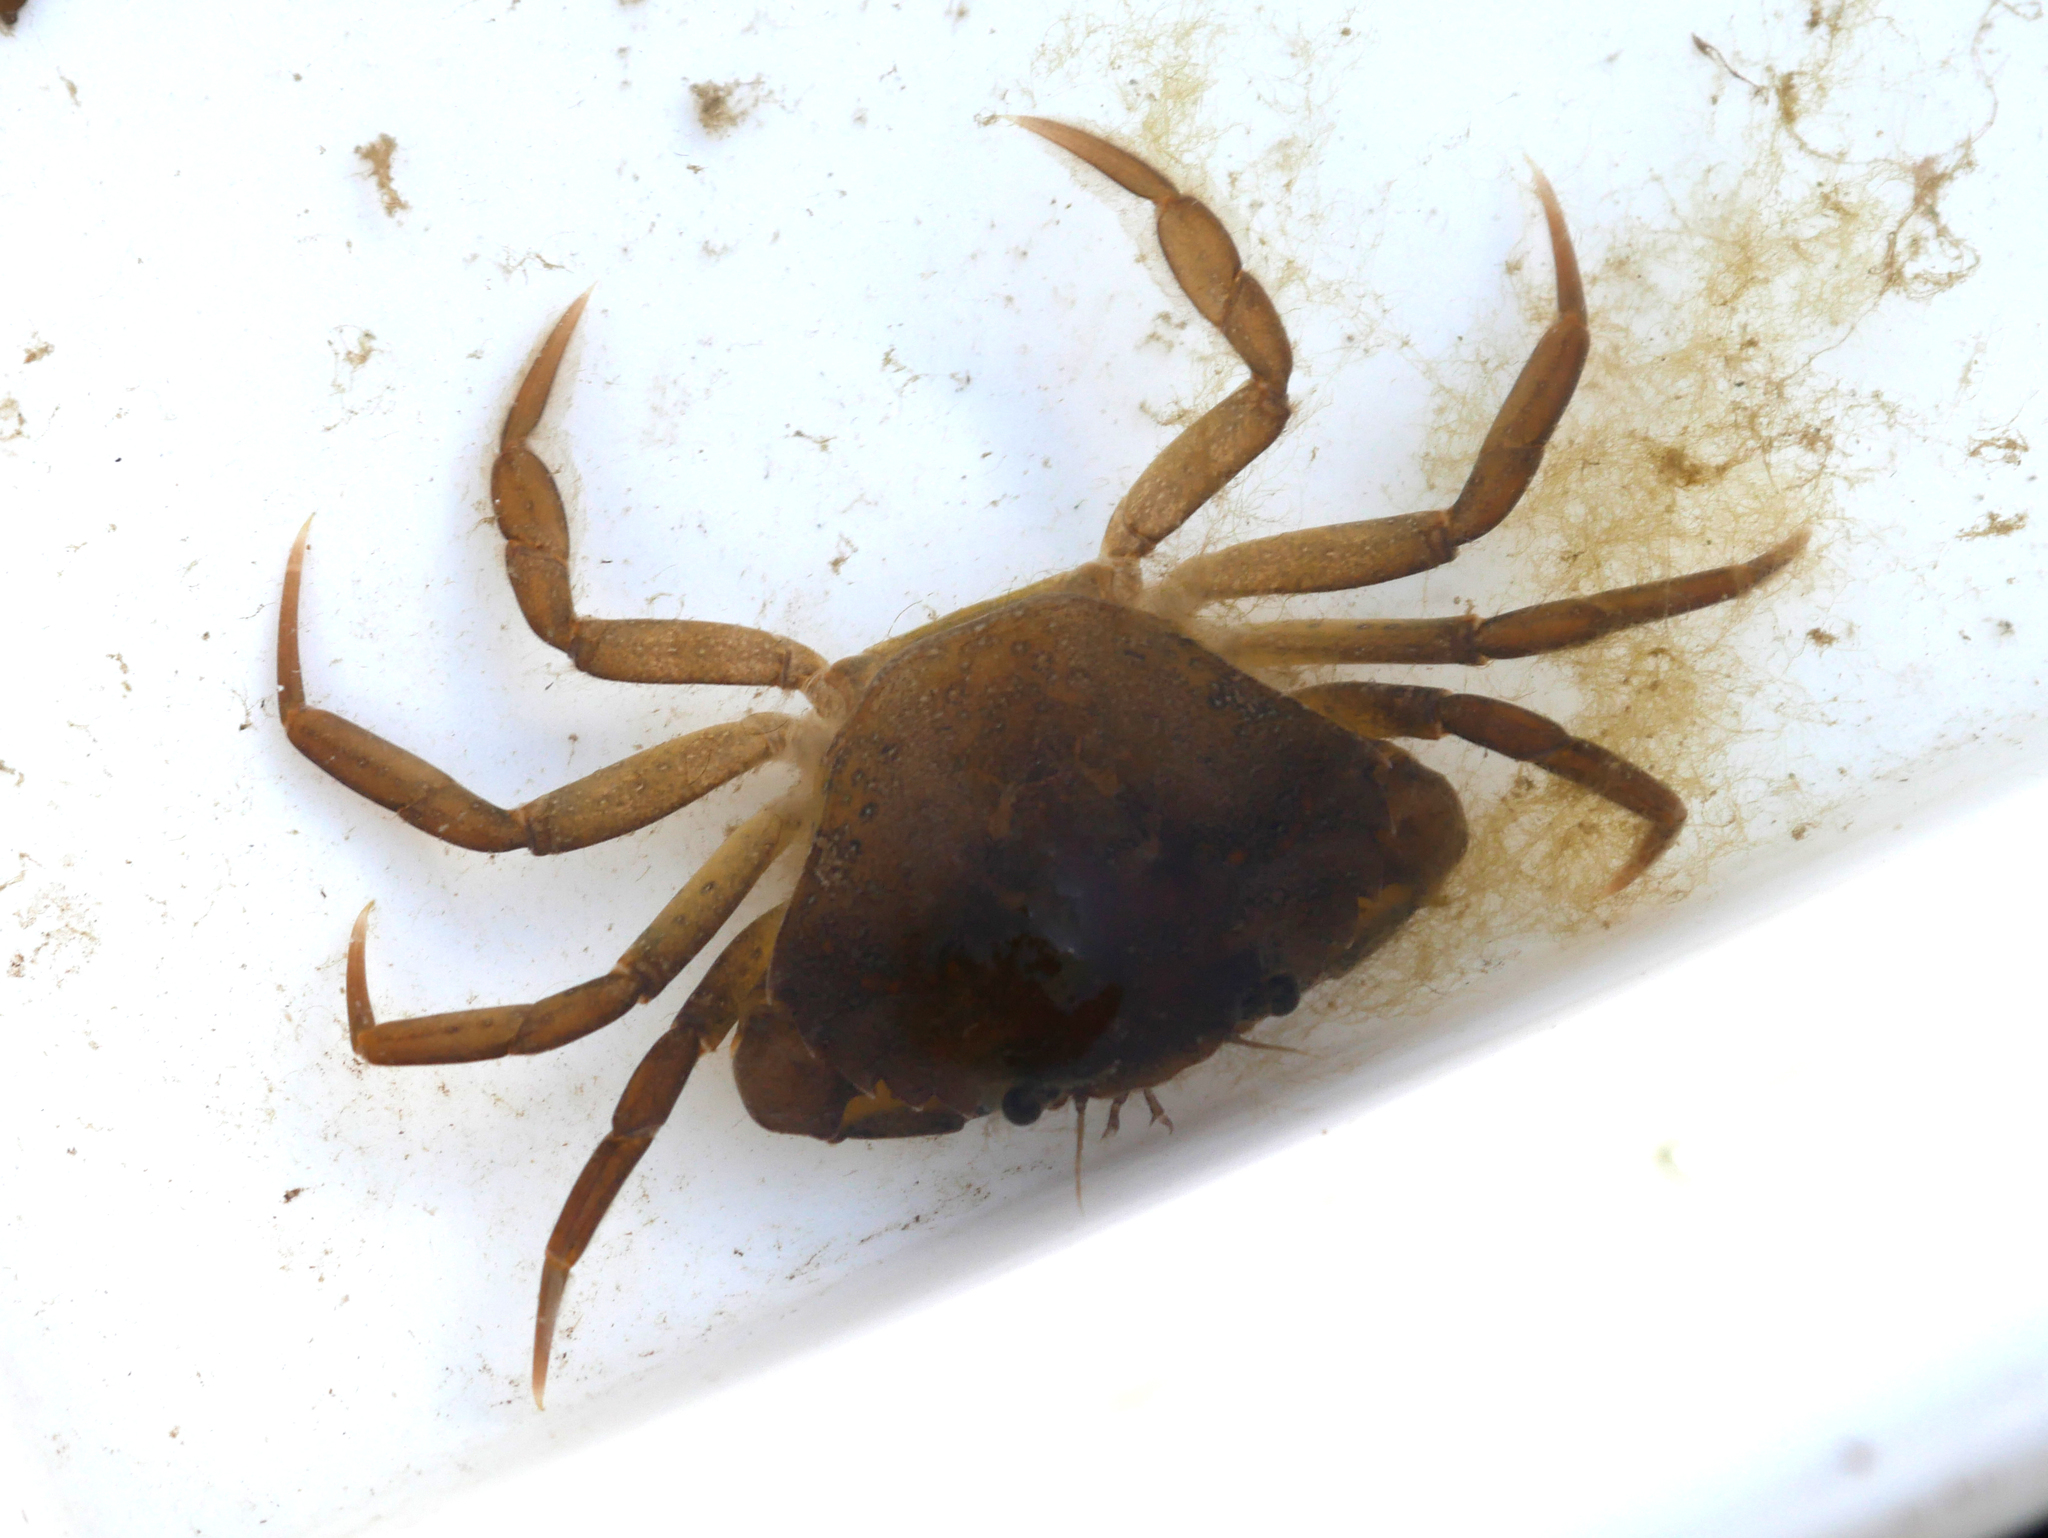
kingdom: Animalia
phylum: Arthropoda
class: Malacostraca
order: Decapoda
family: Carcinidae
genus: Carcinus
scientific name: Carcinus maenas
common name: European green crab
